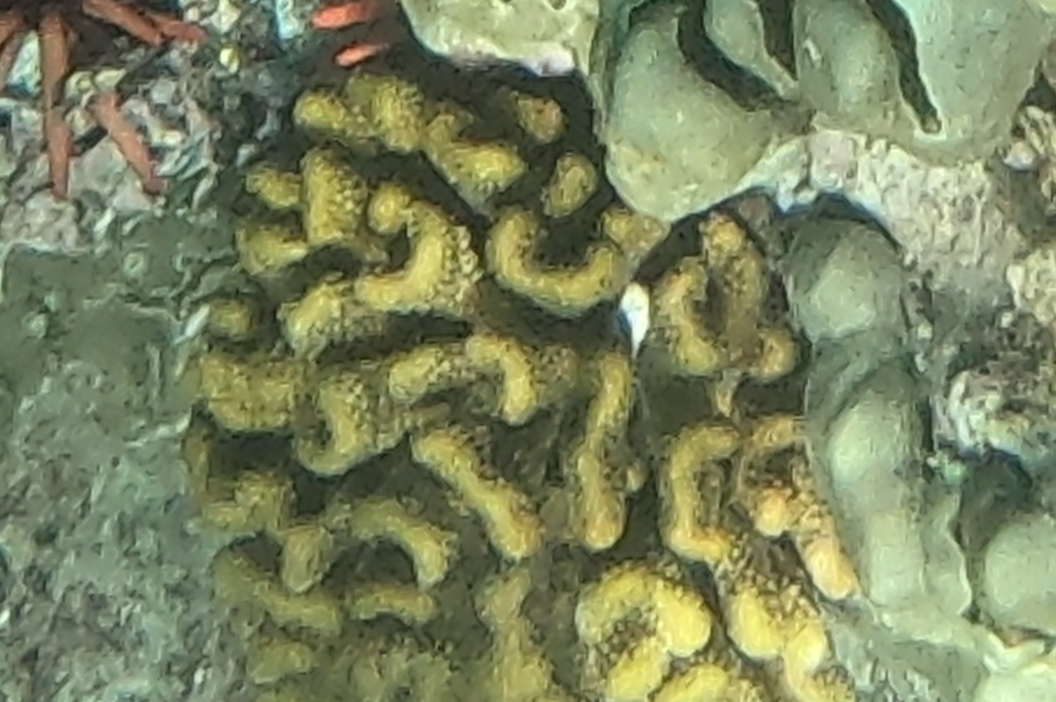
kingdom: Animalia
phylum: Cnidaria
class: Anthozoa
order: Scleractinia
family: Pocilloporidae
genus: Pocillopora
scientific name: Pocillopora meandrina
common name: Cauliflower coral
